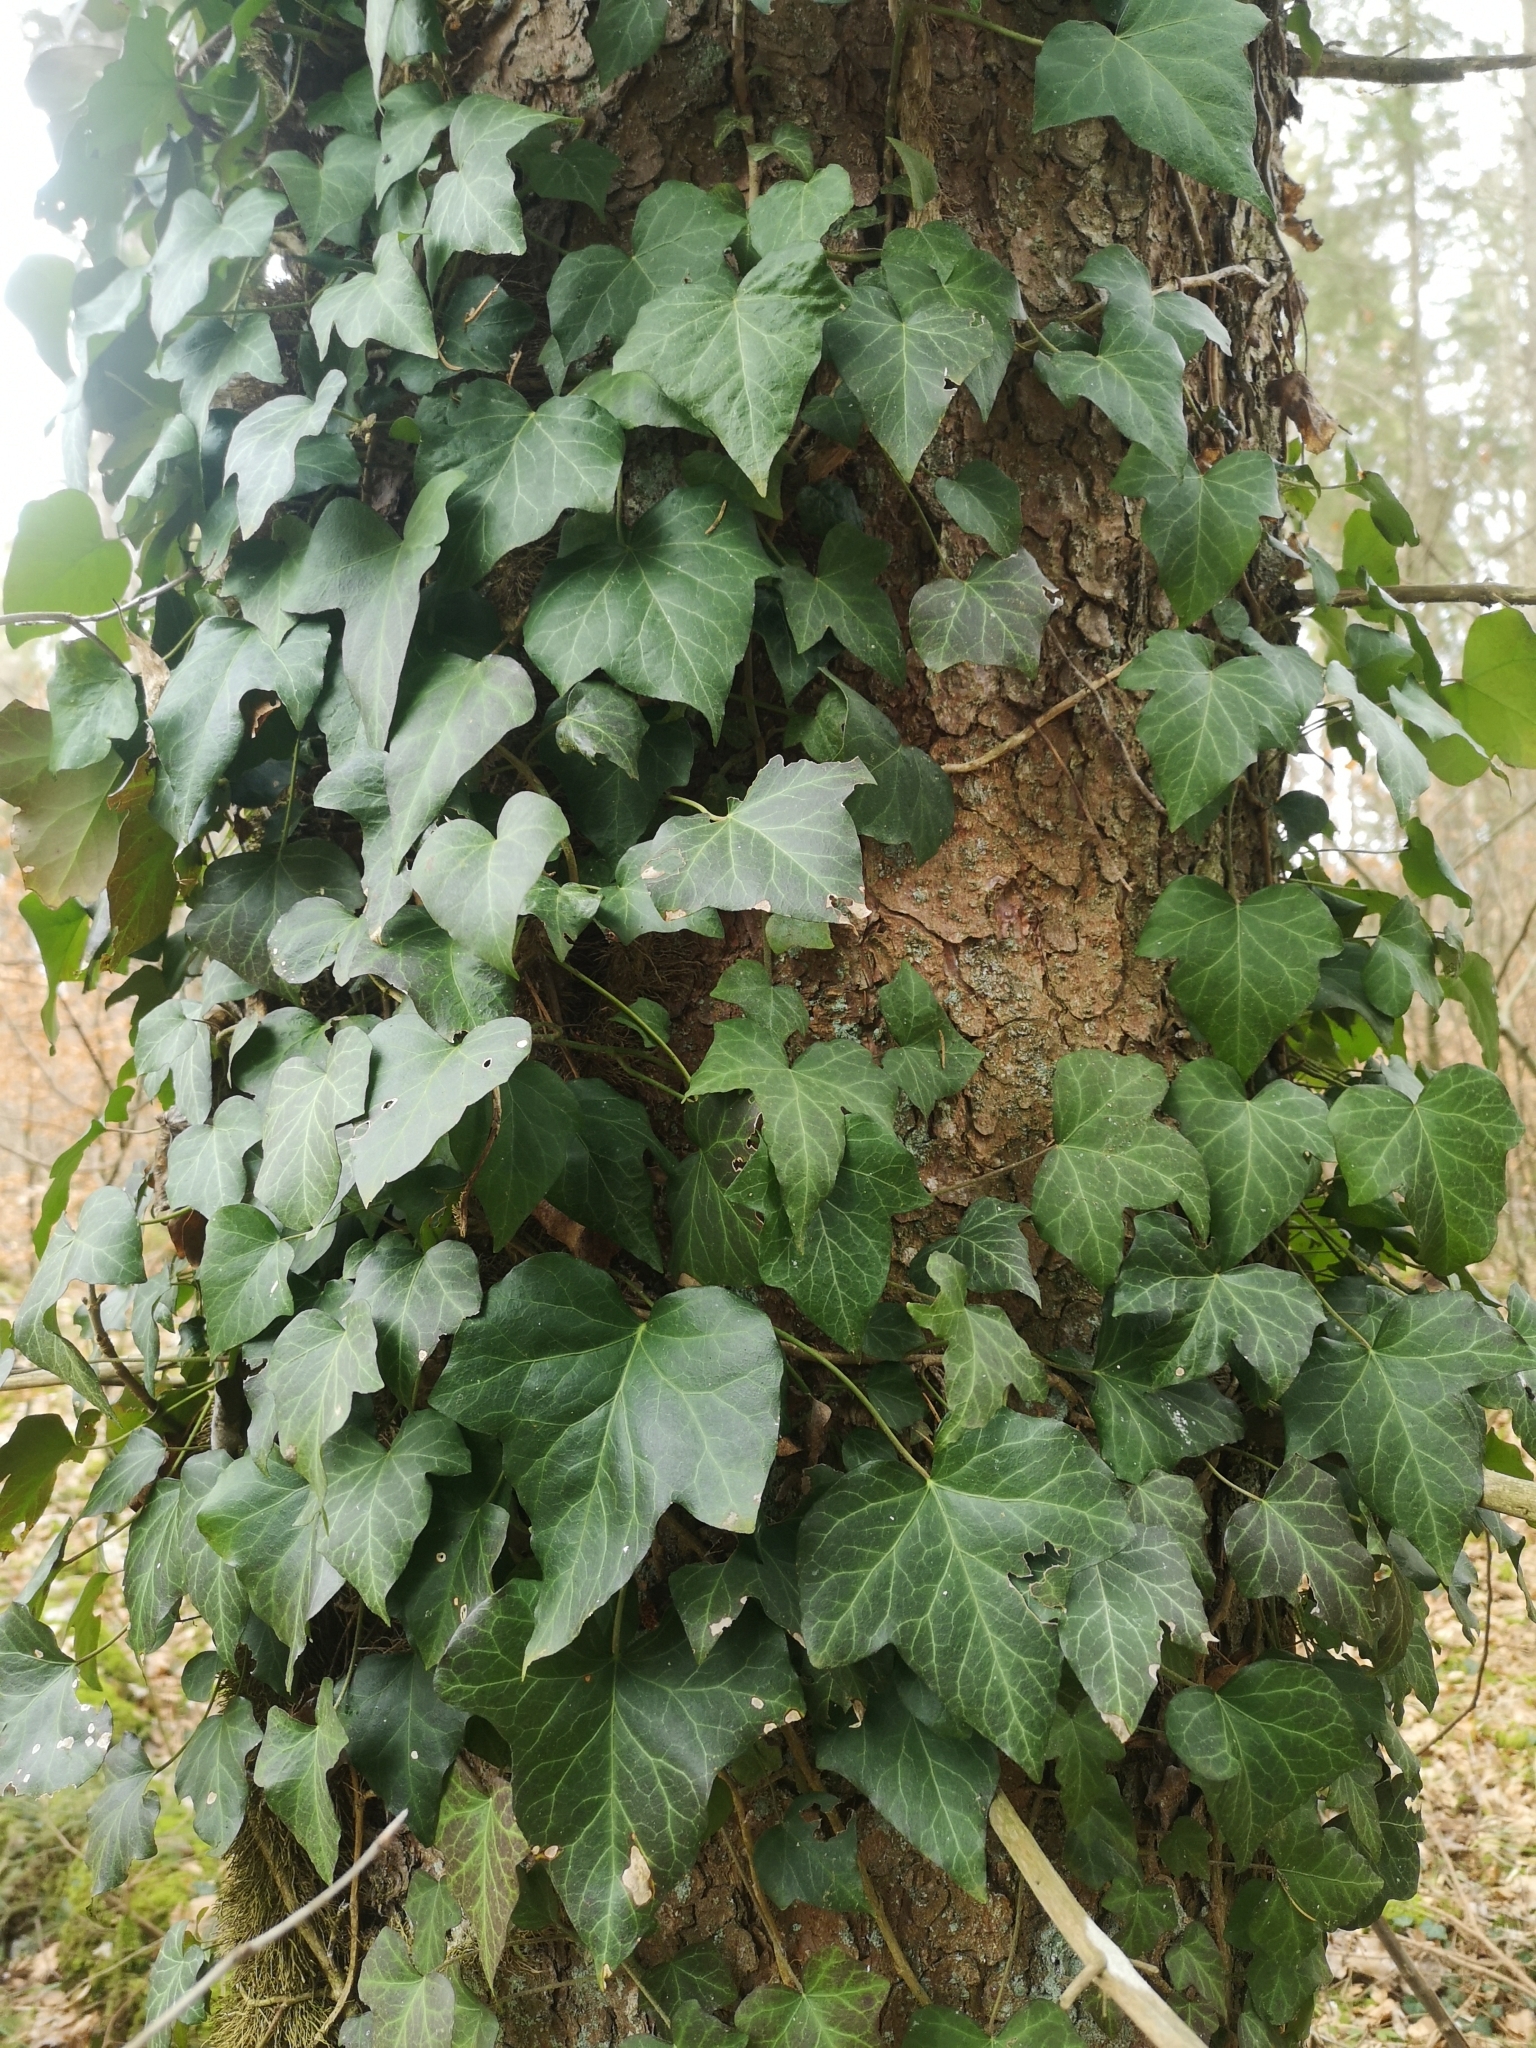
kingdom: Plantae
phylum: Tracheophyta
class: Magnoliopsida
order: Apiales
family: Araliaceae
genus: Hedera
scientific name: Hedera helix
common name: Ivy
